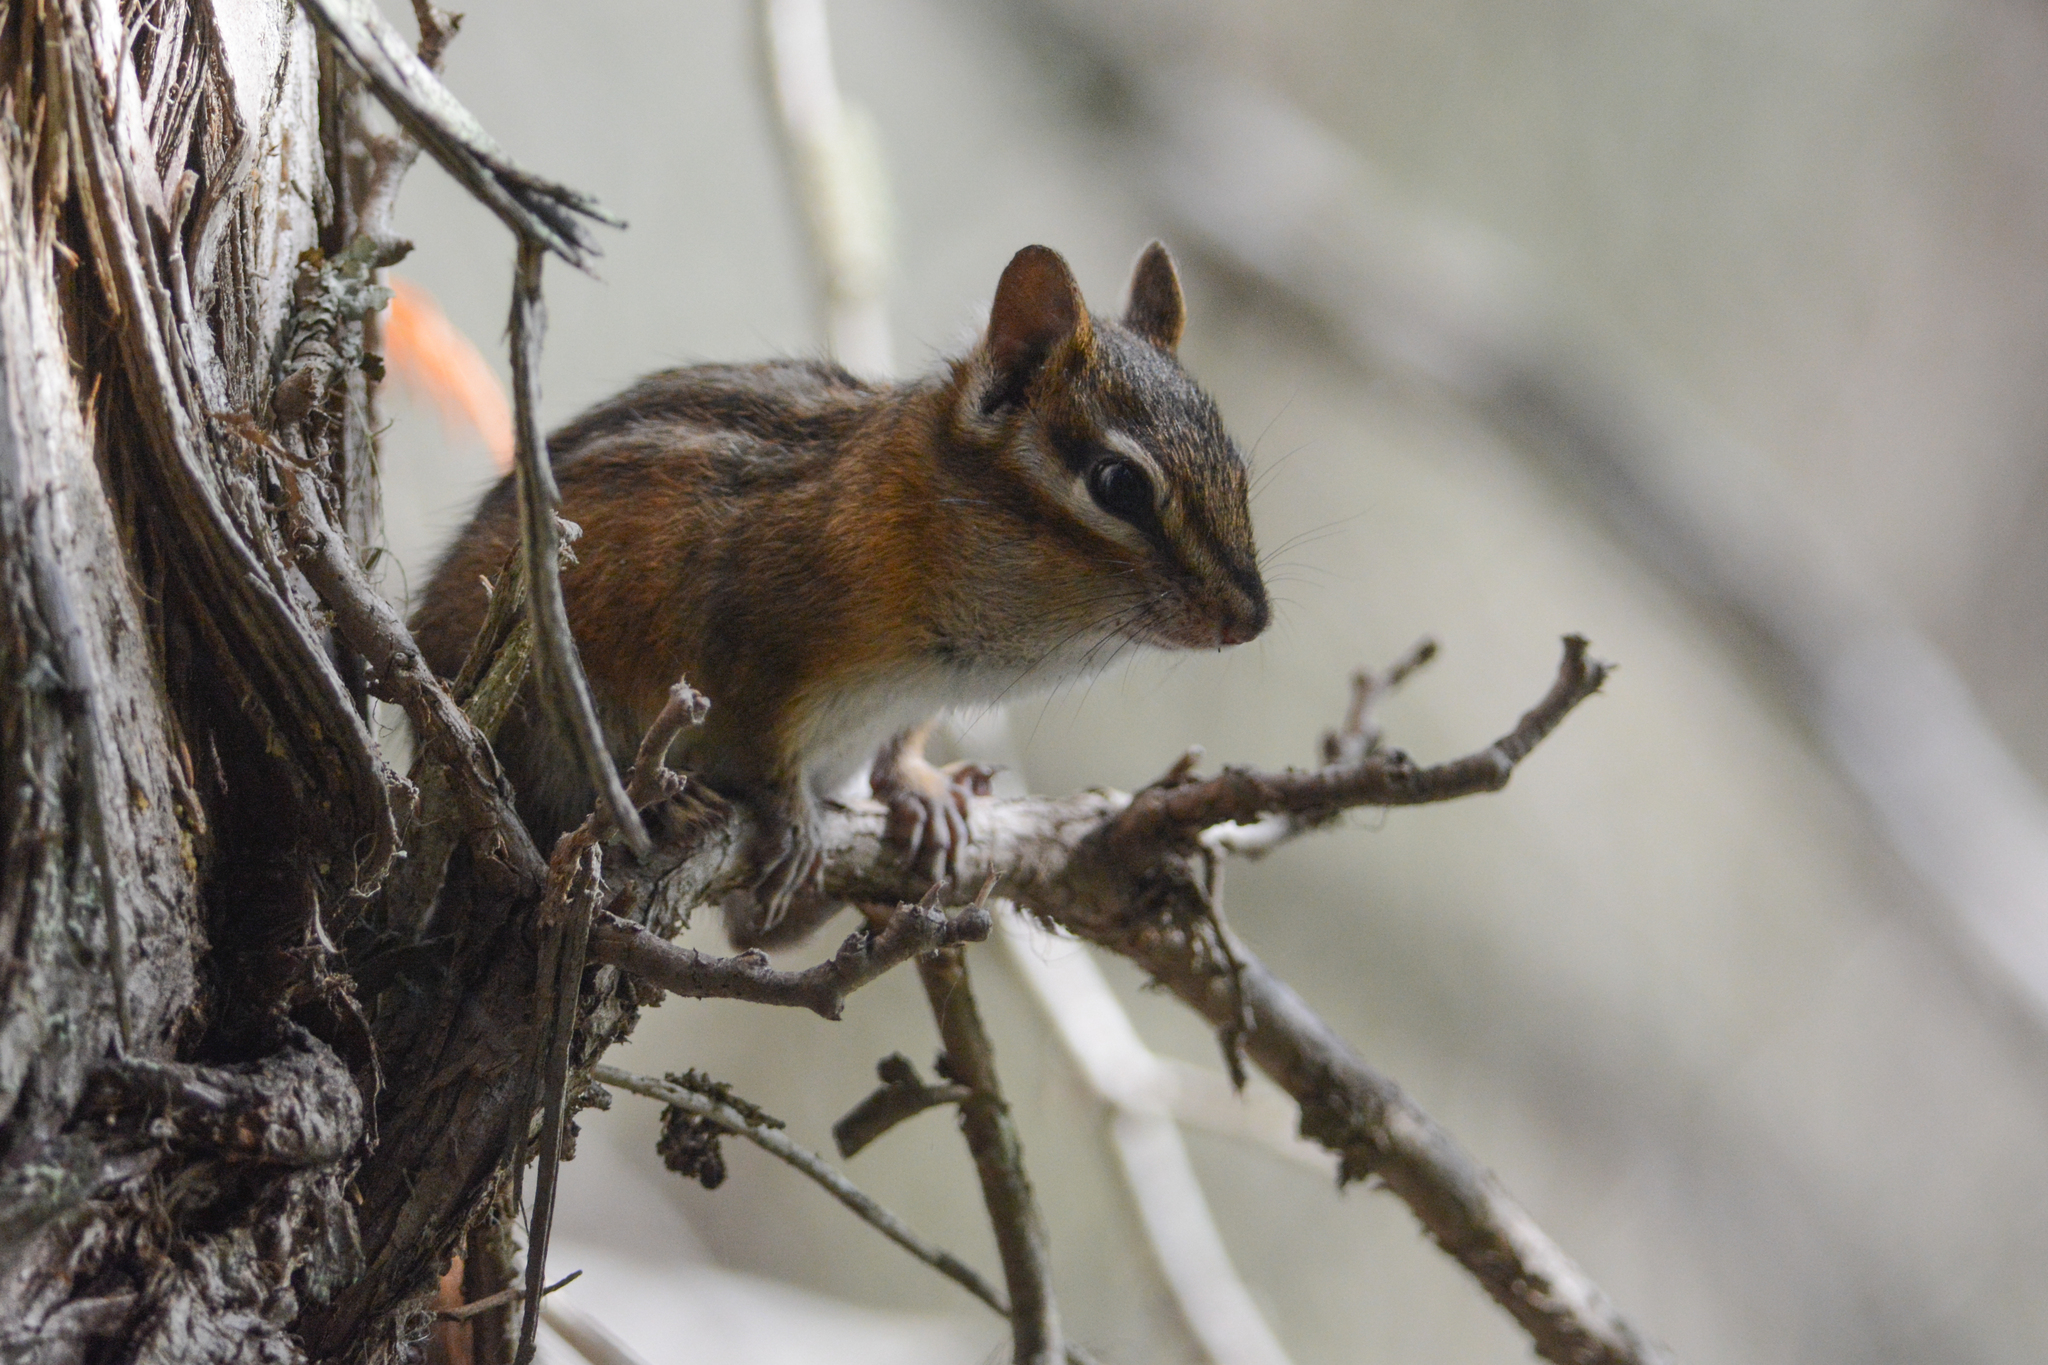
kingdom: Animalia
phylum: Chordata
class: Mammalia
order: Rodentia
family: Sciuridae
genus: Tamias
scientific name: Tamias amoenus
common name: Yellow-pine chipmunk
